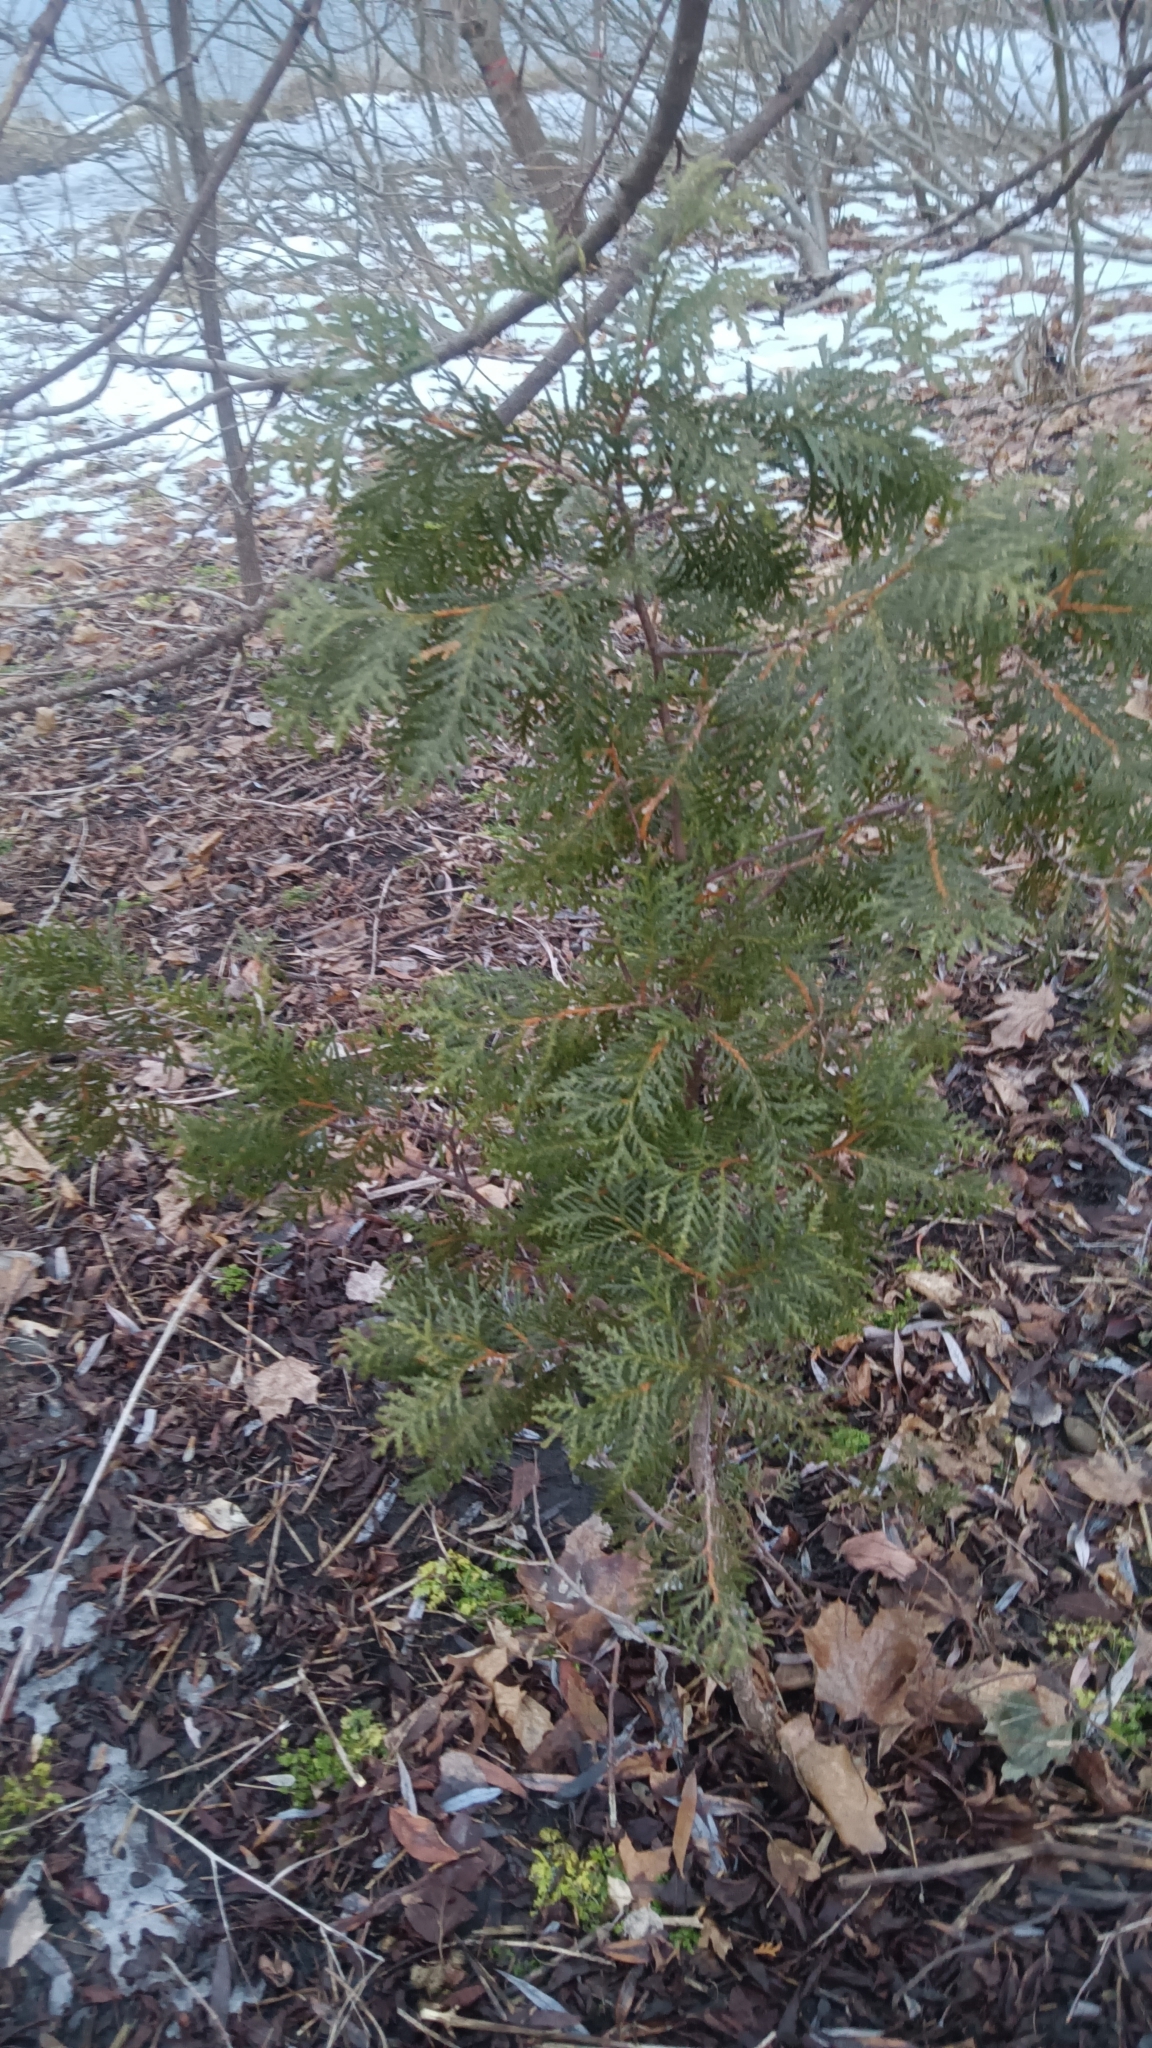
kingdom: Plantae
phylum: Tracheophyta
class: Pinopsida
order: Pinales
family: Cupressaceae
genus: Thuja
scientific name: Thuja occidentalis
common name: Northern white-cedar
